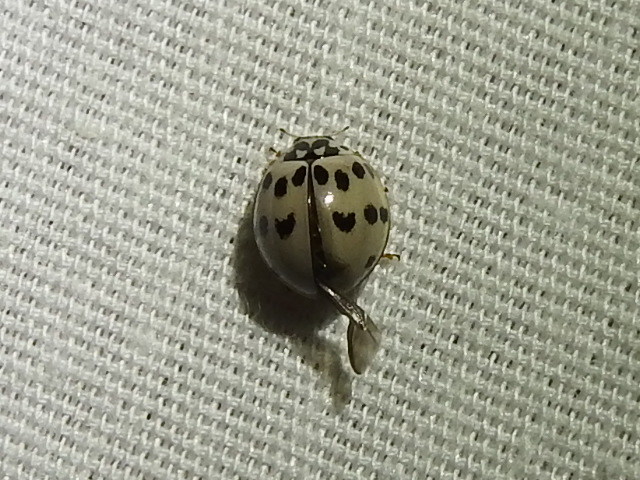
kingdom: Animalia
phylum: Arthropoda
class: Insecta
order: Coleoptera
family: Coccinellidae
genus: Olla
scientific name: Olla v-nigrum
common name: Ashy gray lady beetle
